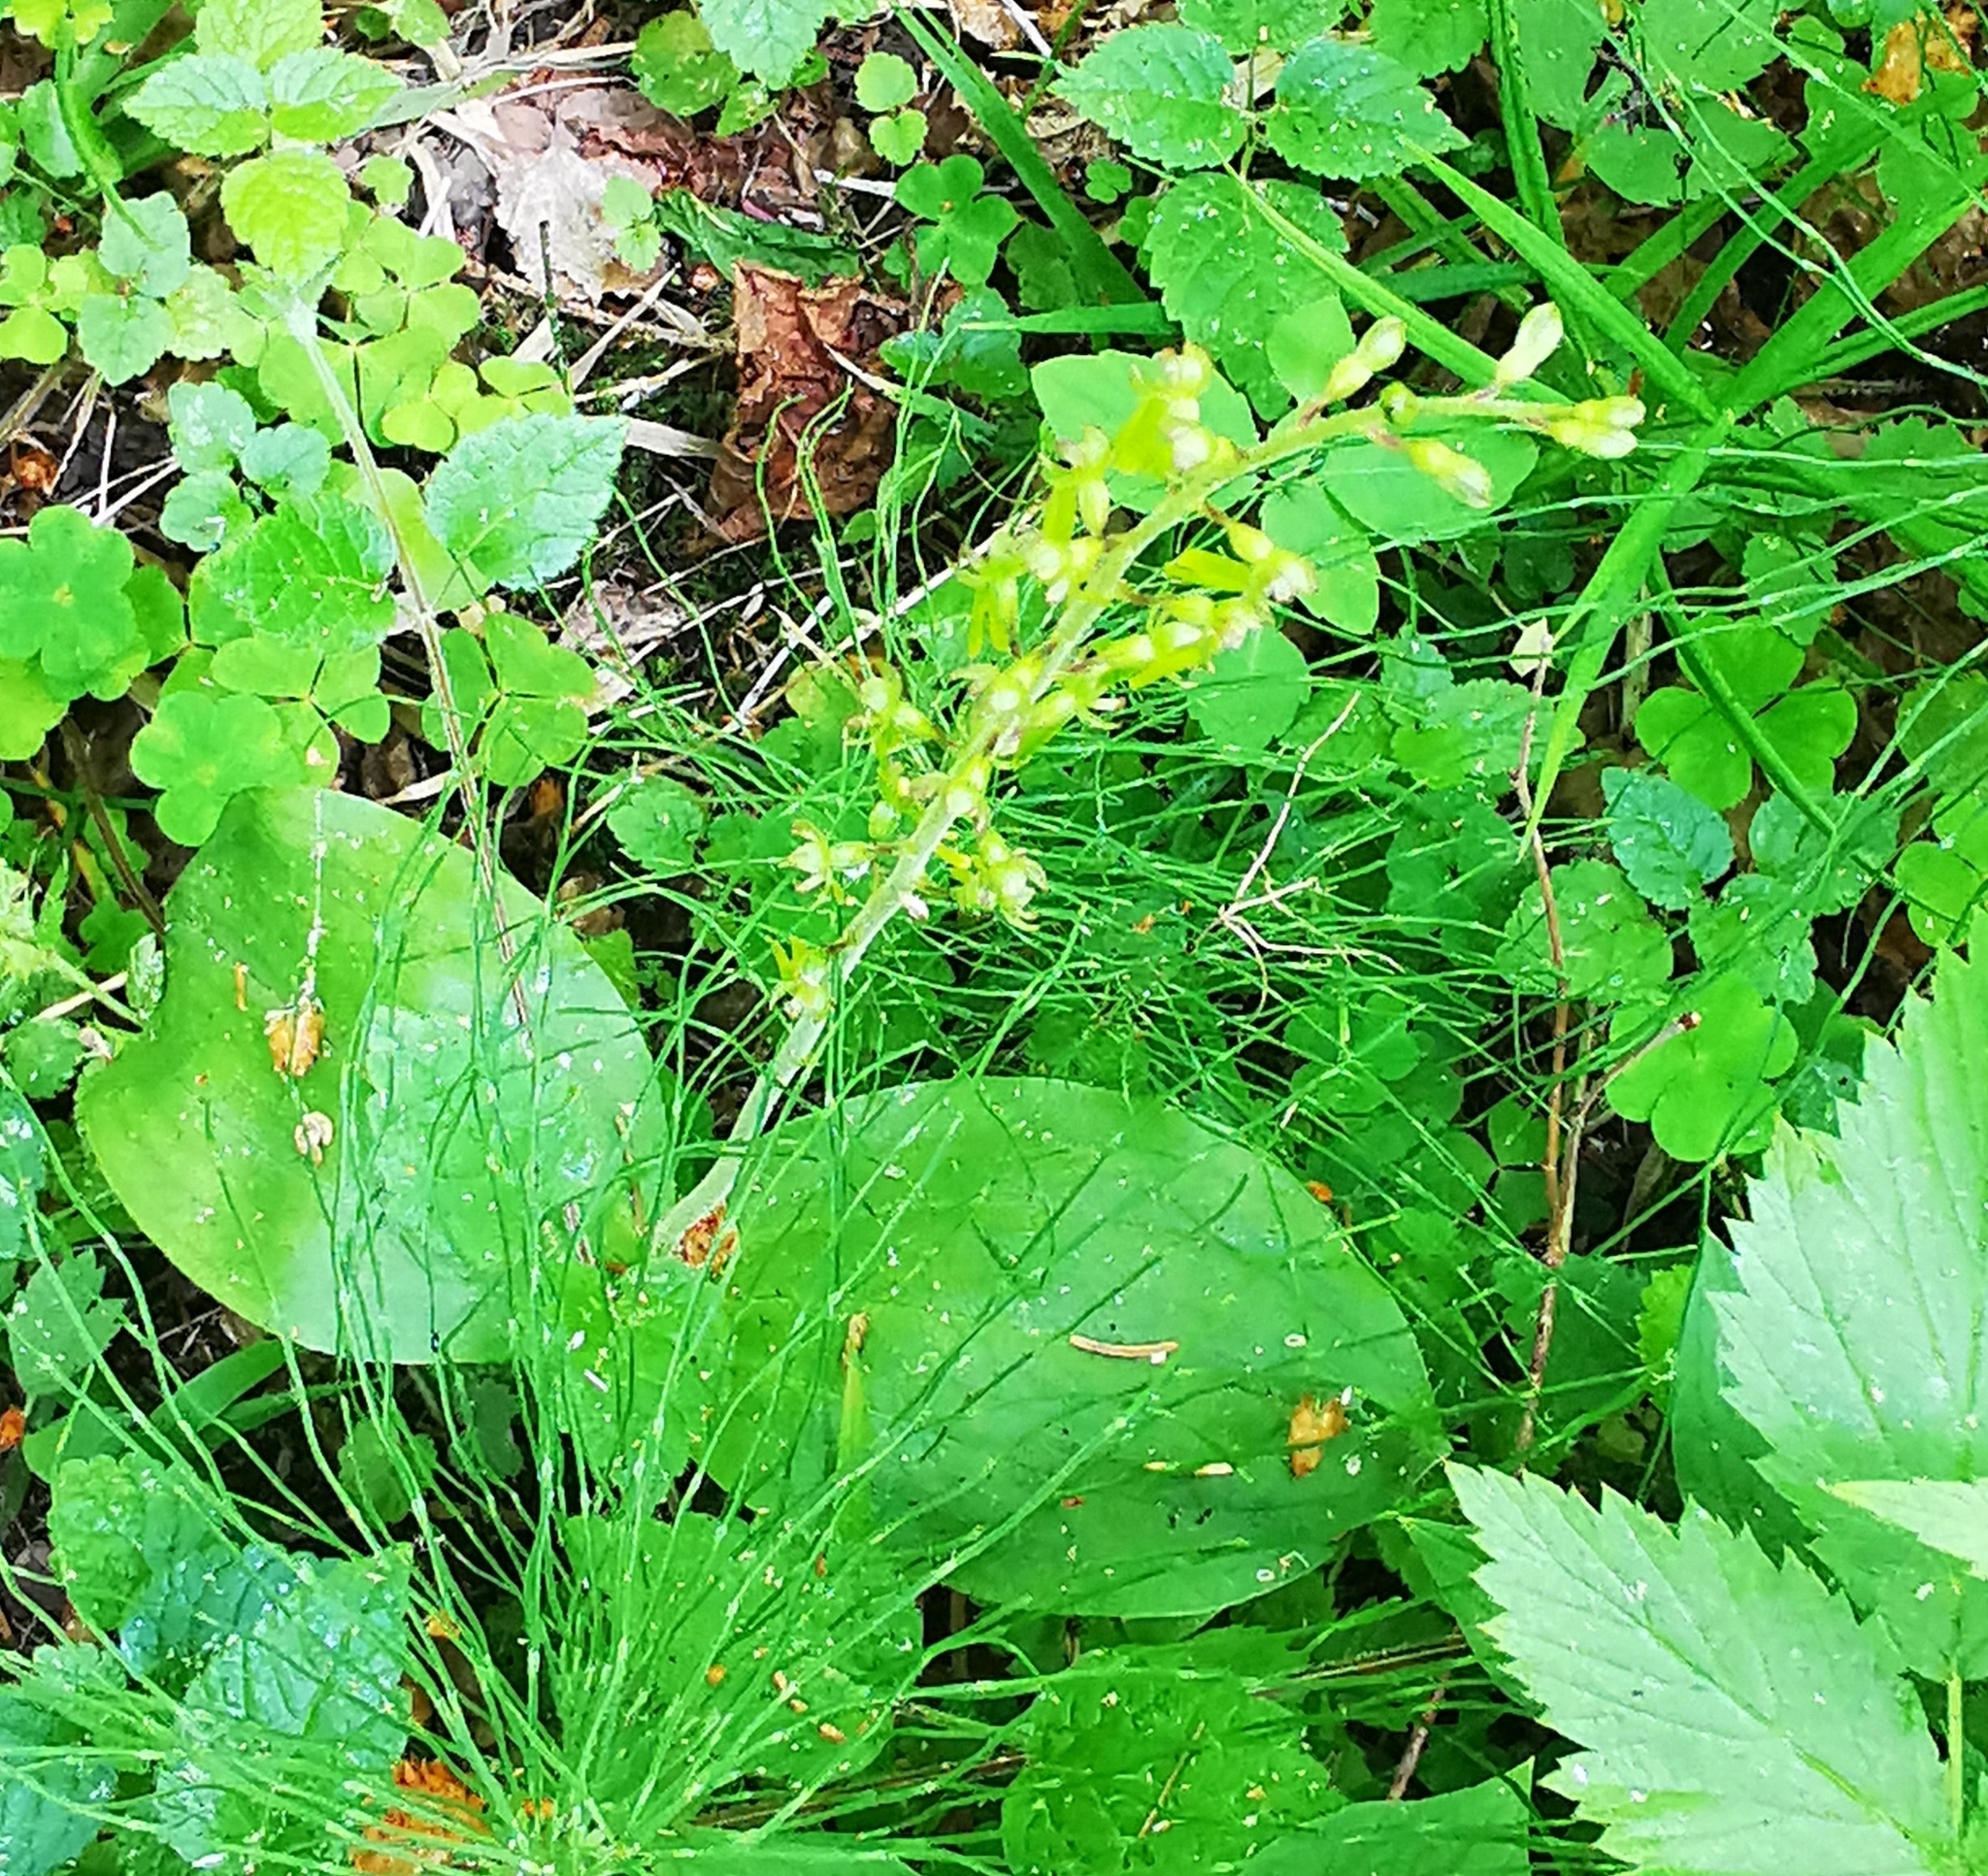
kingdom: Plantae
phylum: Tracheophyta
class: Liliopsida
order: Asparagales
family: Orchidaceae
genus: Neottia
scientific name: Neottia ovata
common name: Common twayblade
